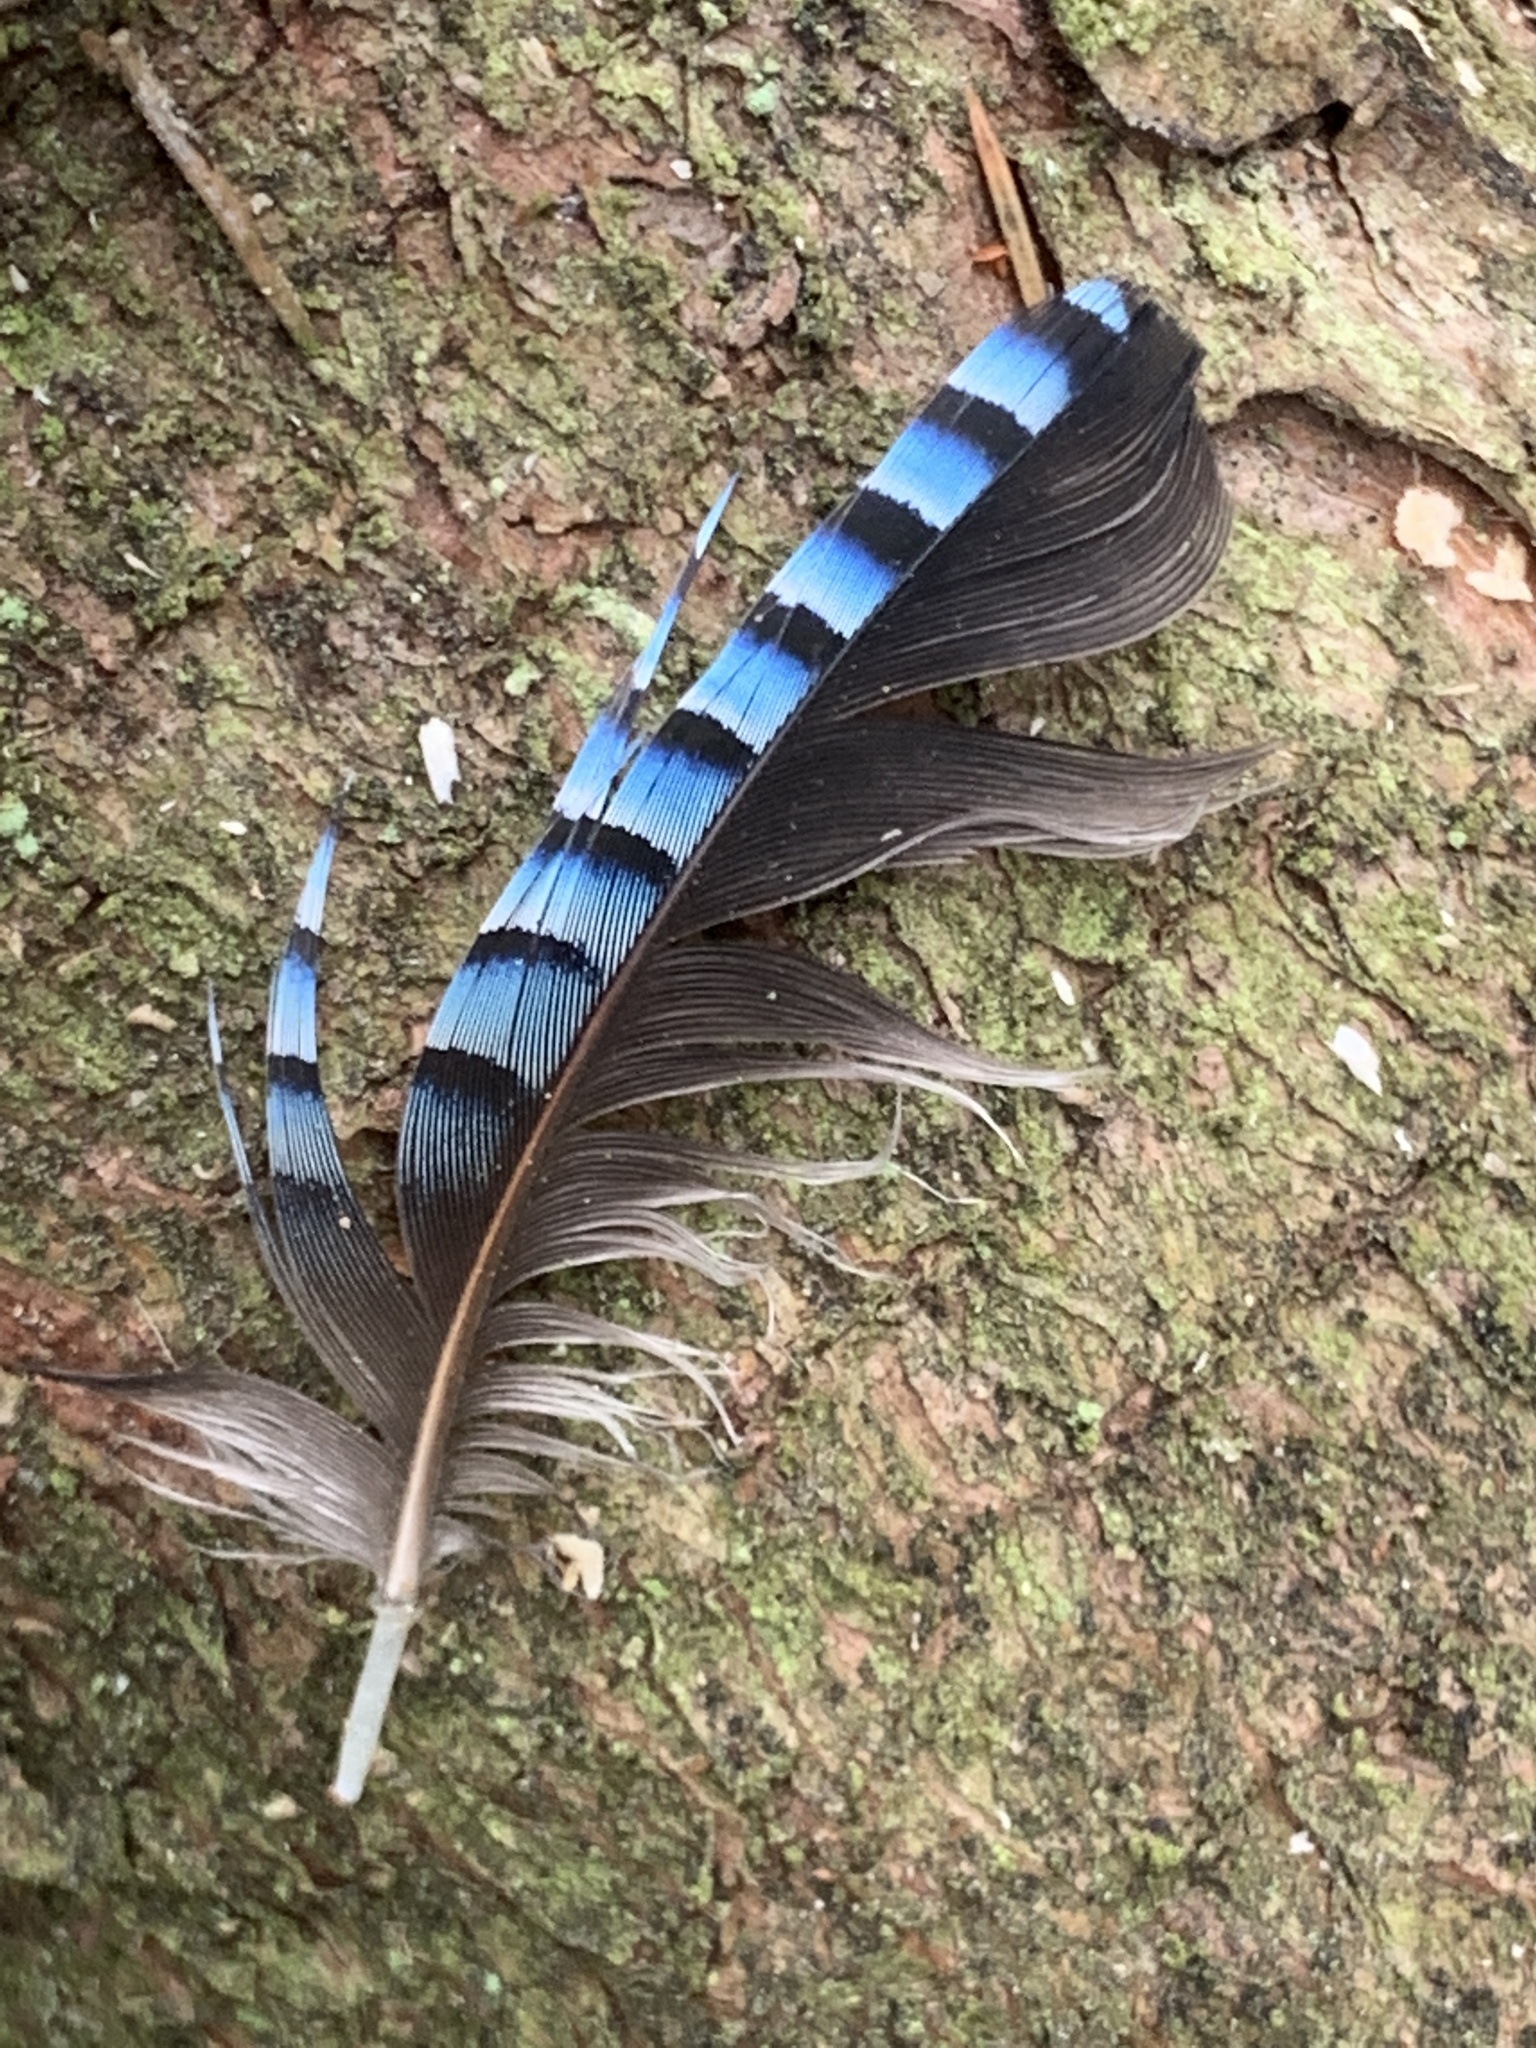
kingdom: Animalia
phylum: Chordata
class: Aves
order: Passeriformes
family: Corvidae
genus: Garrulus
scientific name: Garrulus glandarius
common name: Eurasian jay
